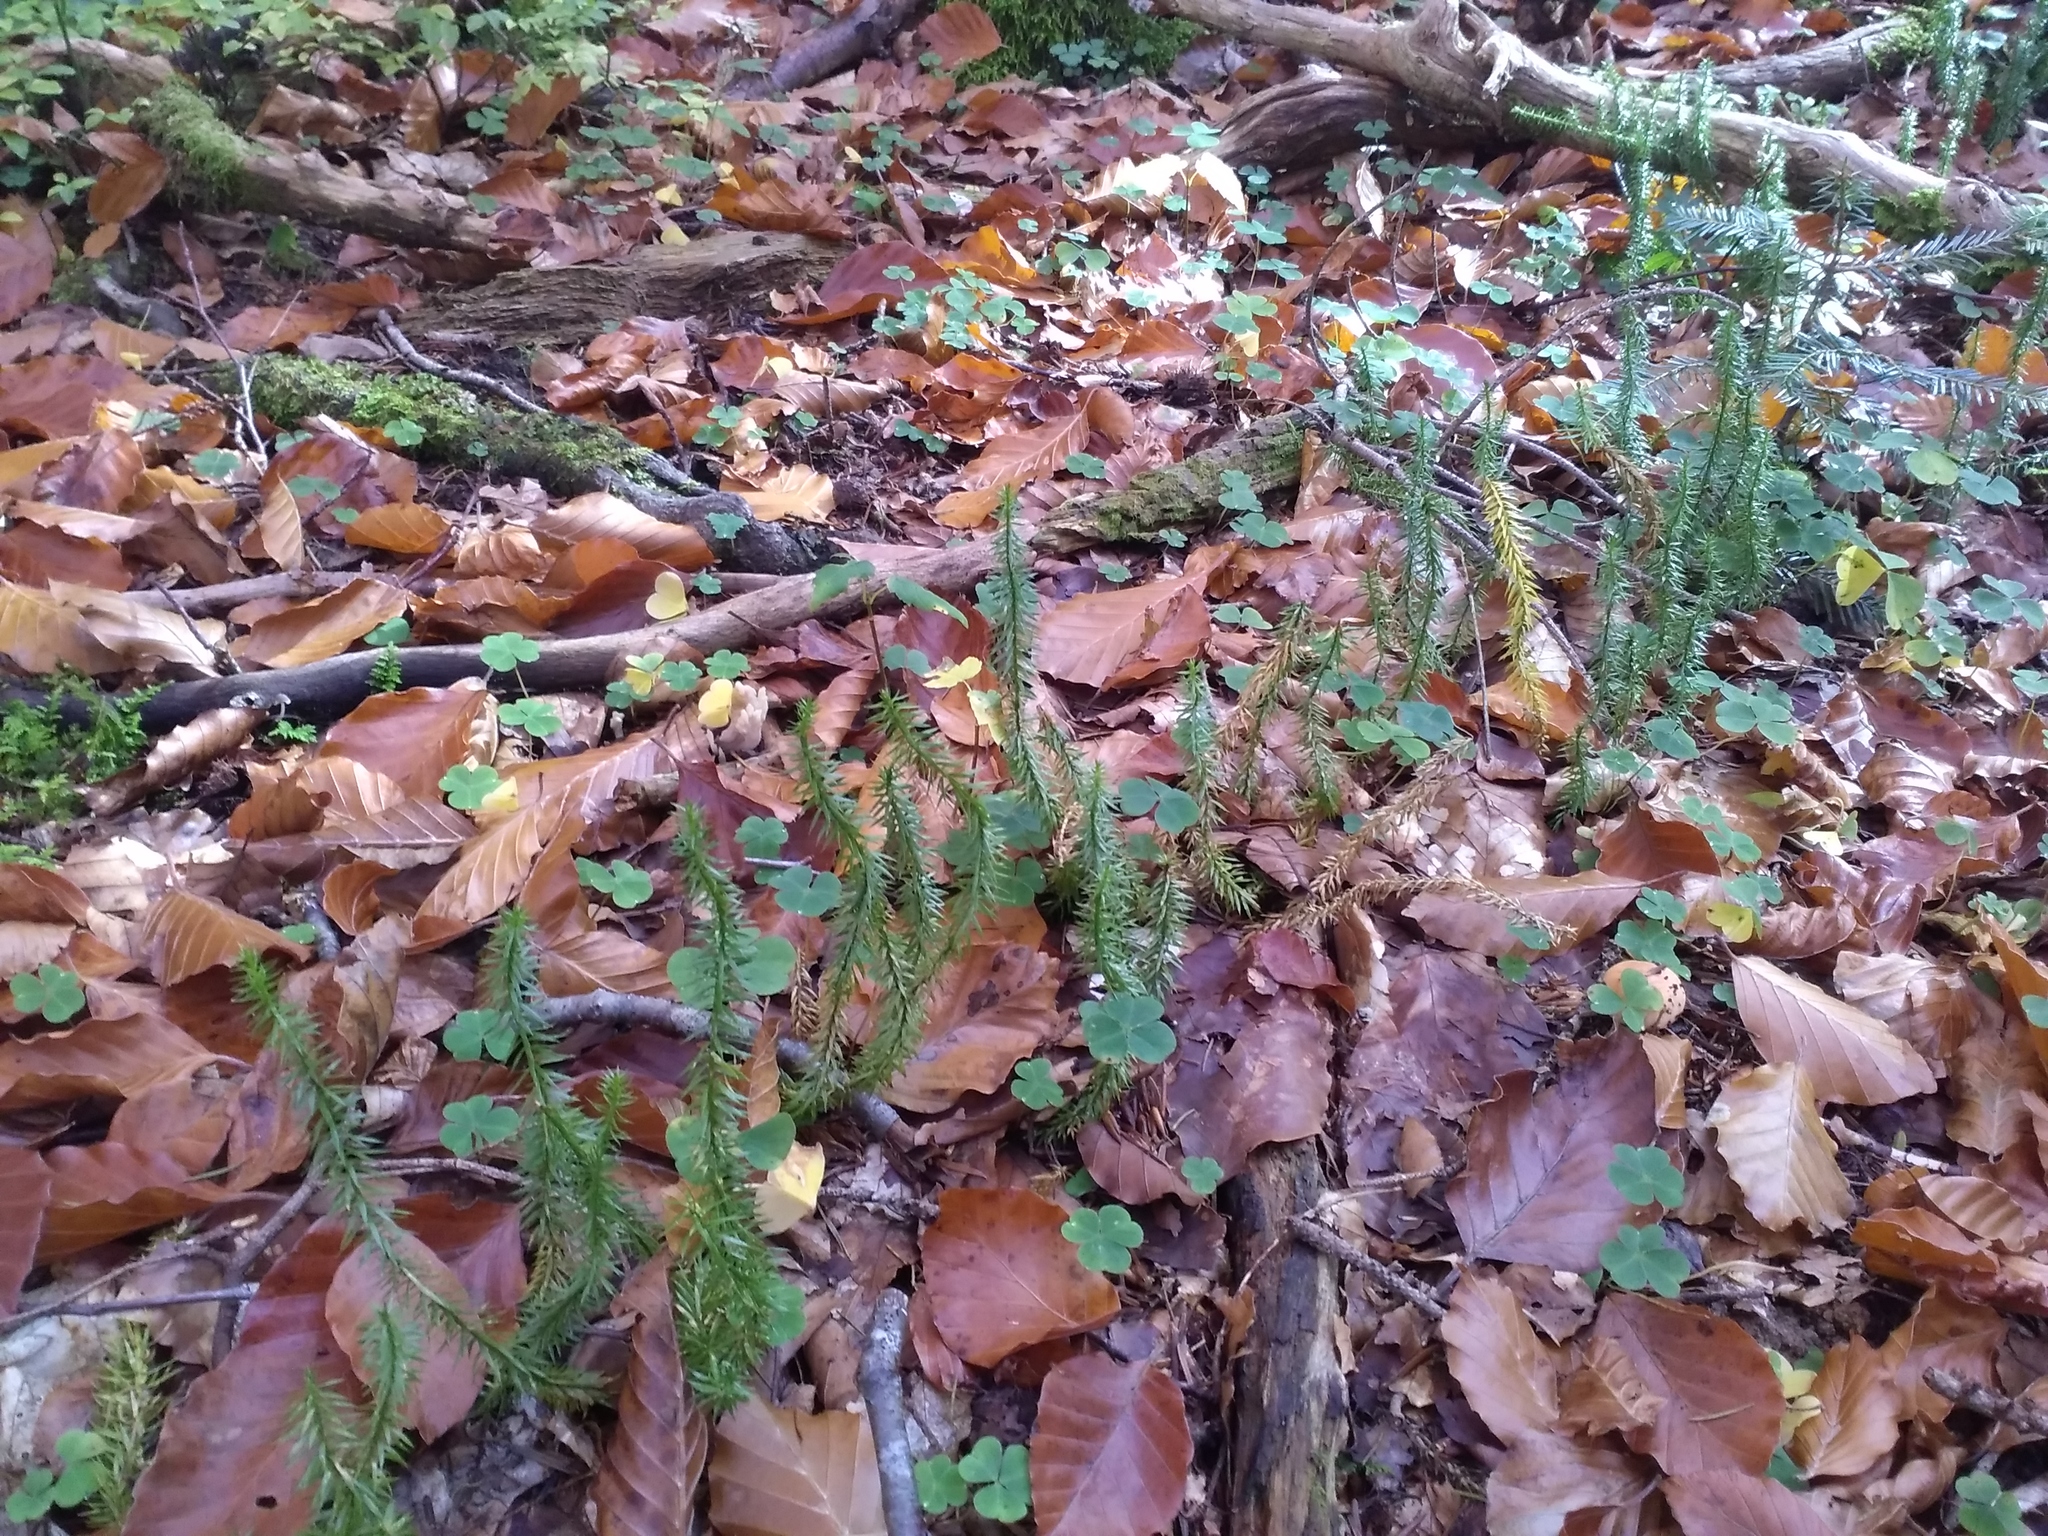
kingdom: Plantae
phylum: Tracheophyta
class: Lycopodiopsida
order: Lycopodiales
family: Lycopodiaceae
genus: Spinulum
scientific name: Spinulum annotinum
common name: Interrupted club-moss
